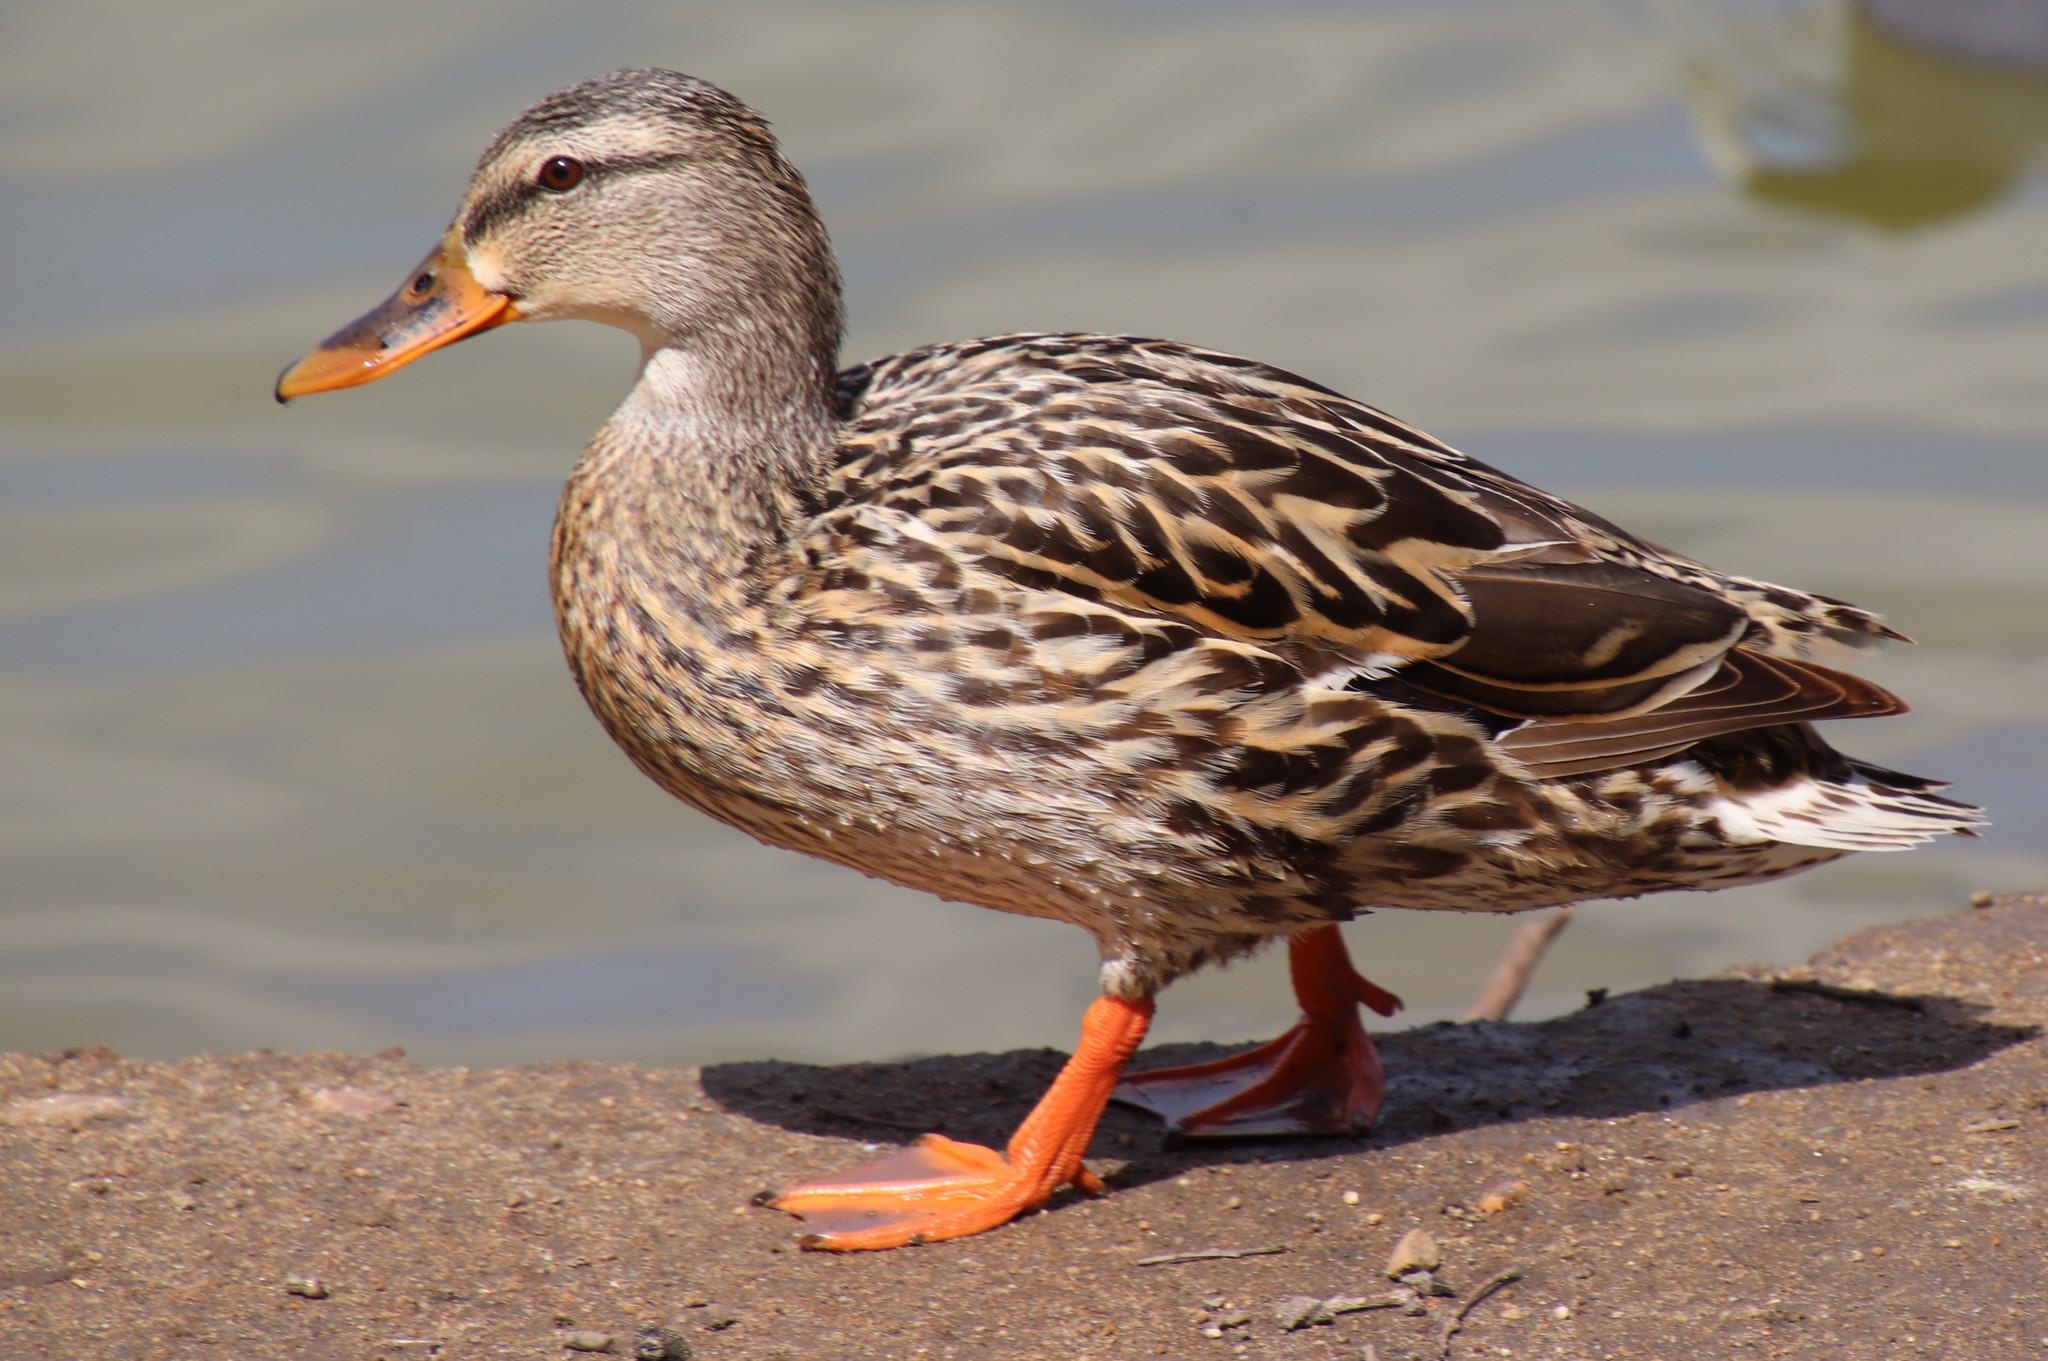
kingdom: Animalia
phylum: Chordata
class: Aves
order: Anseriformes
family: Anatidae
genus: Anas
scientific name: Anas platyrhynchos
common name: Mallard
